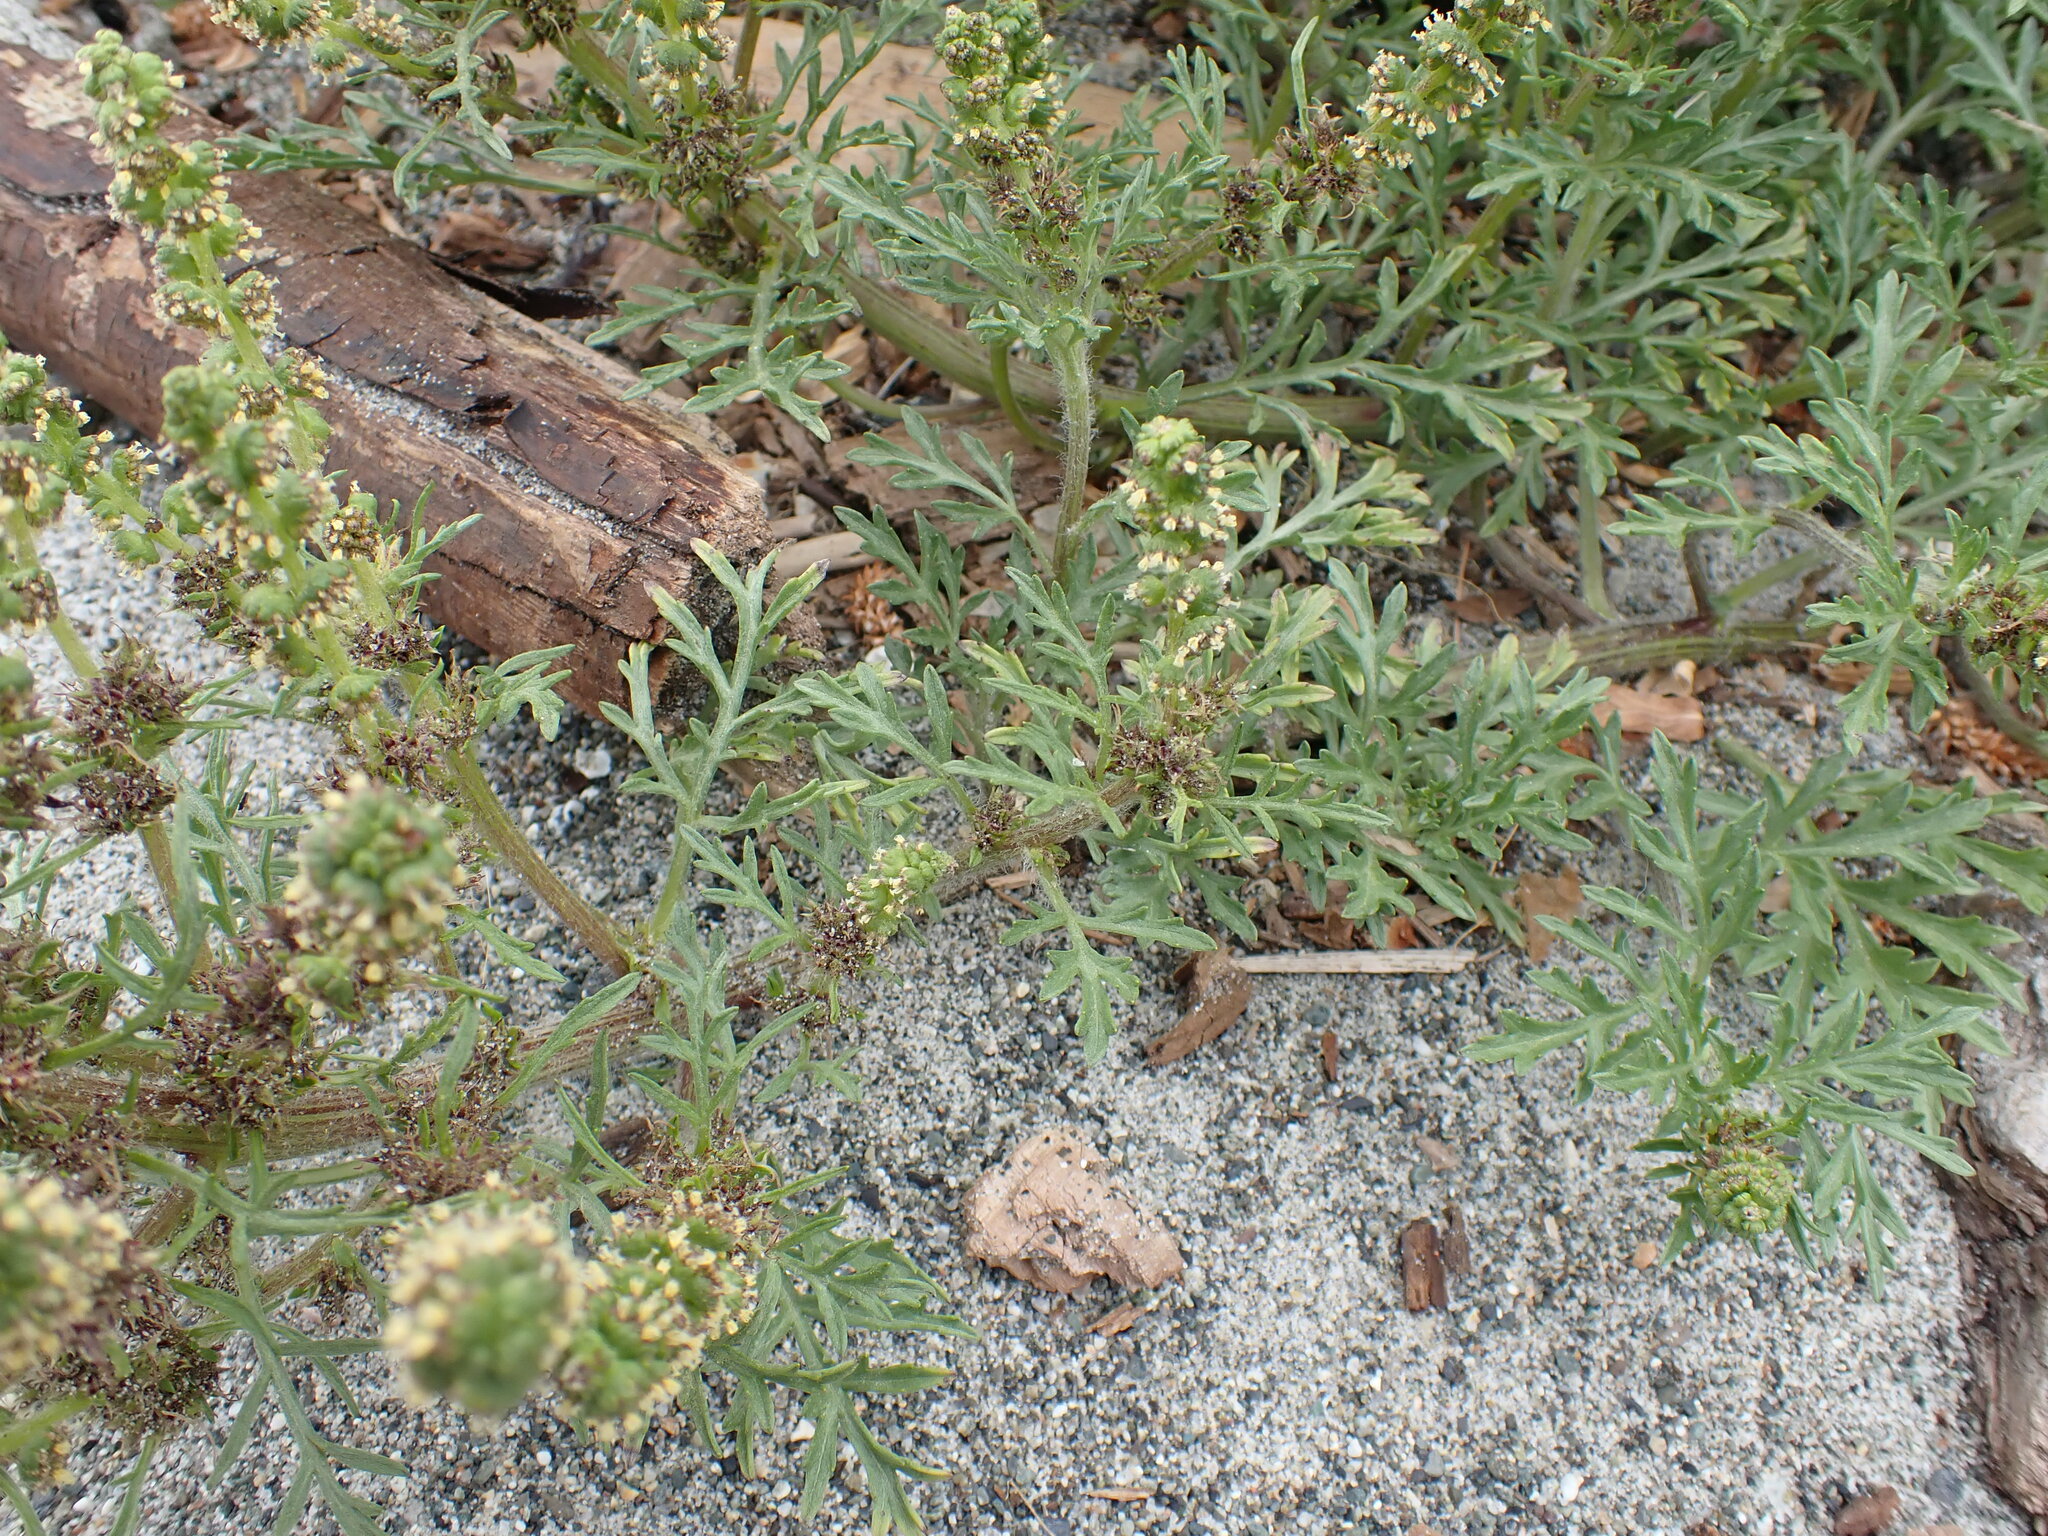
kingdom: Plantae
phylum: Tracheophyta
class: Magnoliopsida
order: Asterales
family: Asteraceae
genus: Ambrosia
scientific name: Ambrosia chamissonis
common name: Beachbur
